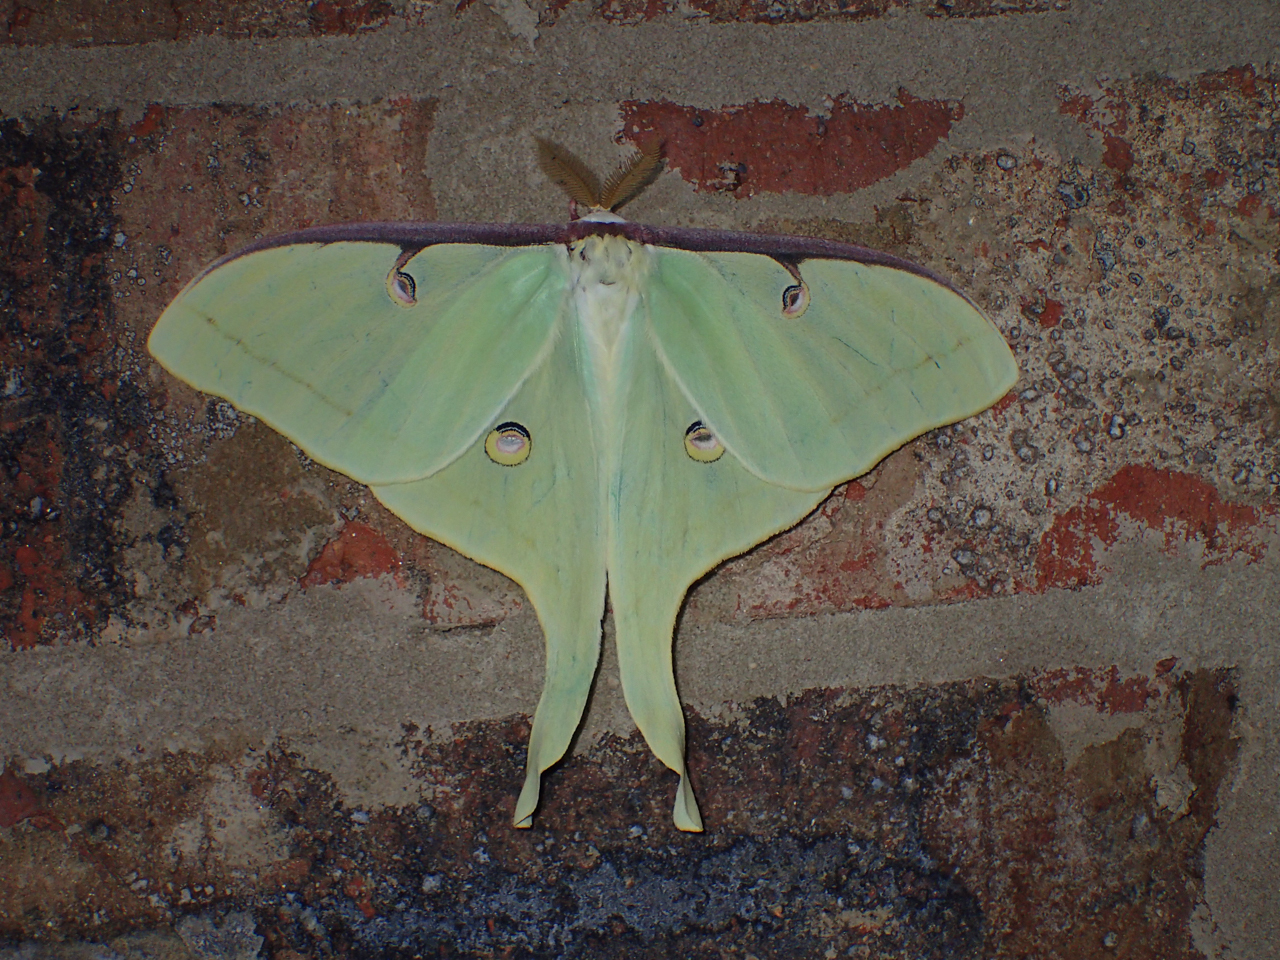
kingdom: Animalia
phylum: Arthropoda
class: Insecta
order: Lepidoptera
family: Saturniidae
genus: Actias
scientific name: Actias luna
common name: Luna moth
